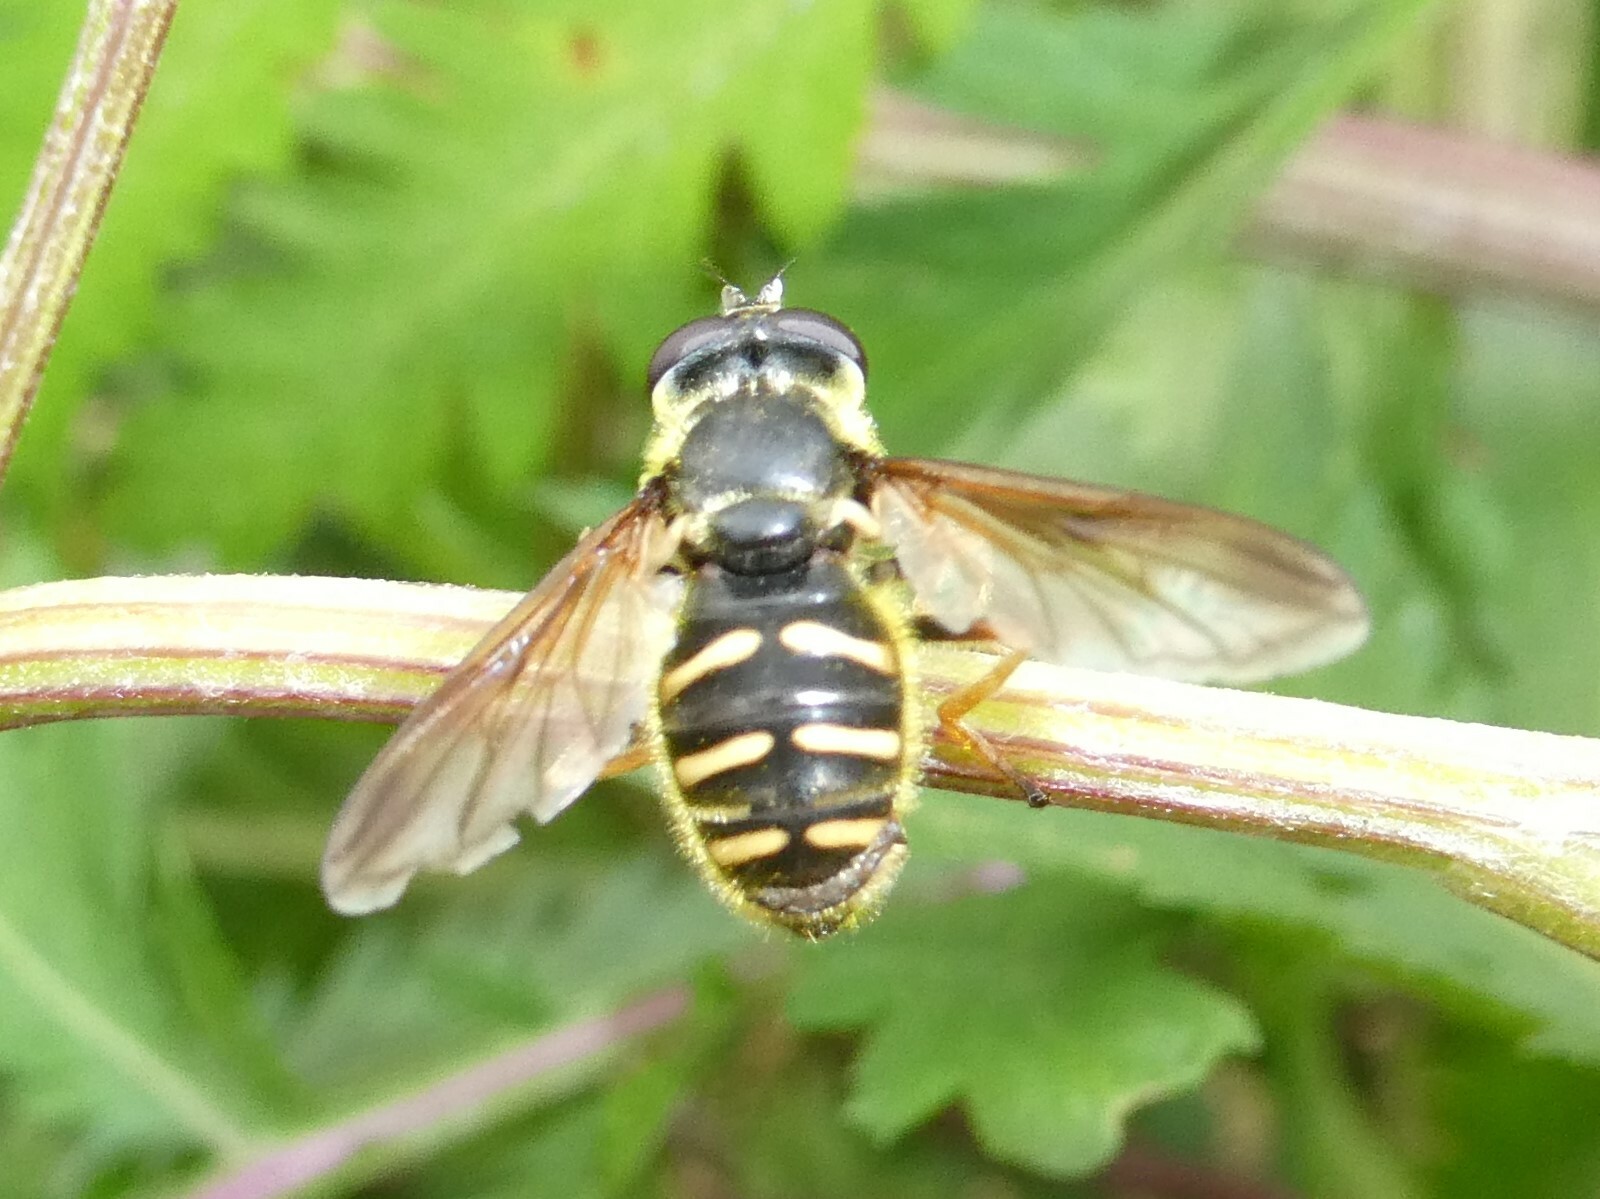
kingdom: Animalia
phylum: Arthropoda
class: Insecta
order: Diptera
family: Syrphidae
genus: Sericomyia
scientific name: Sericomyia chrysotoxoides
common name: Oblique-banded pond fly
